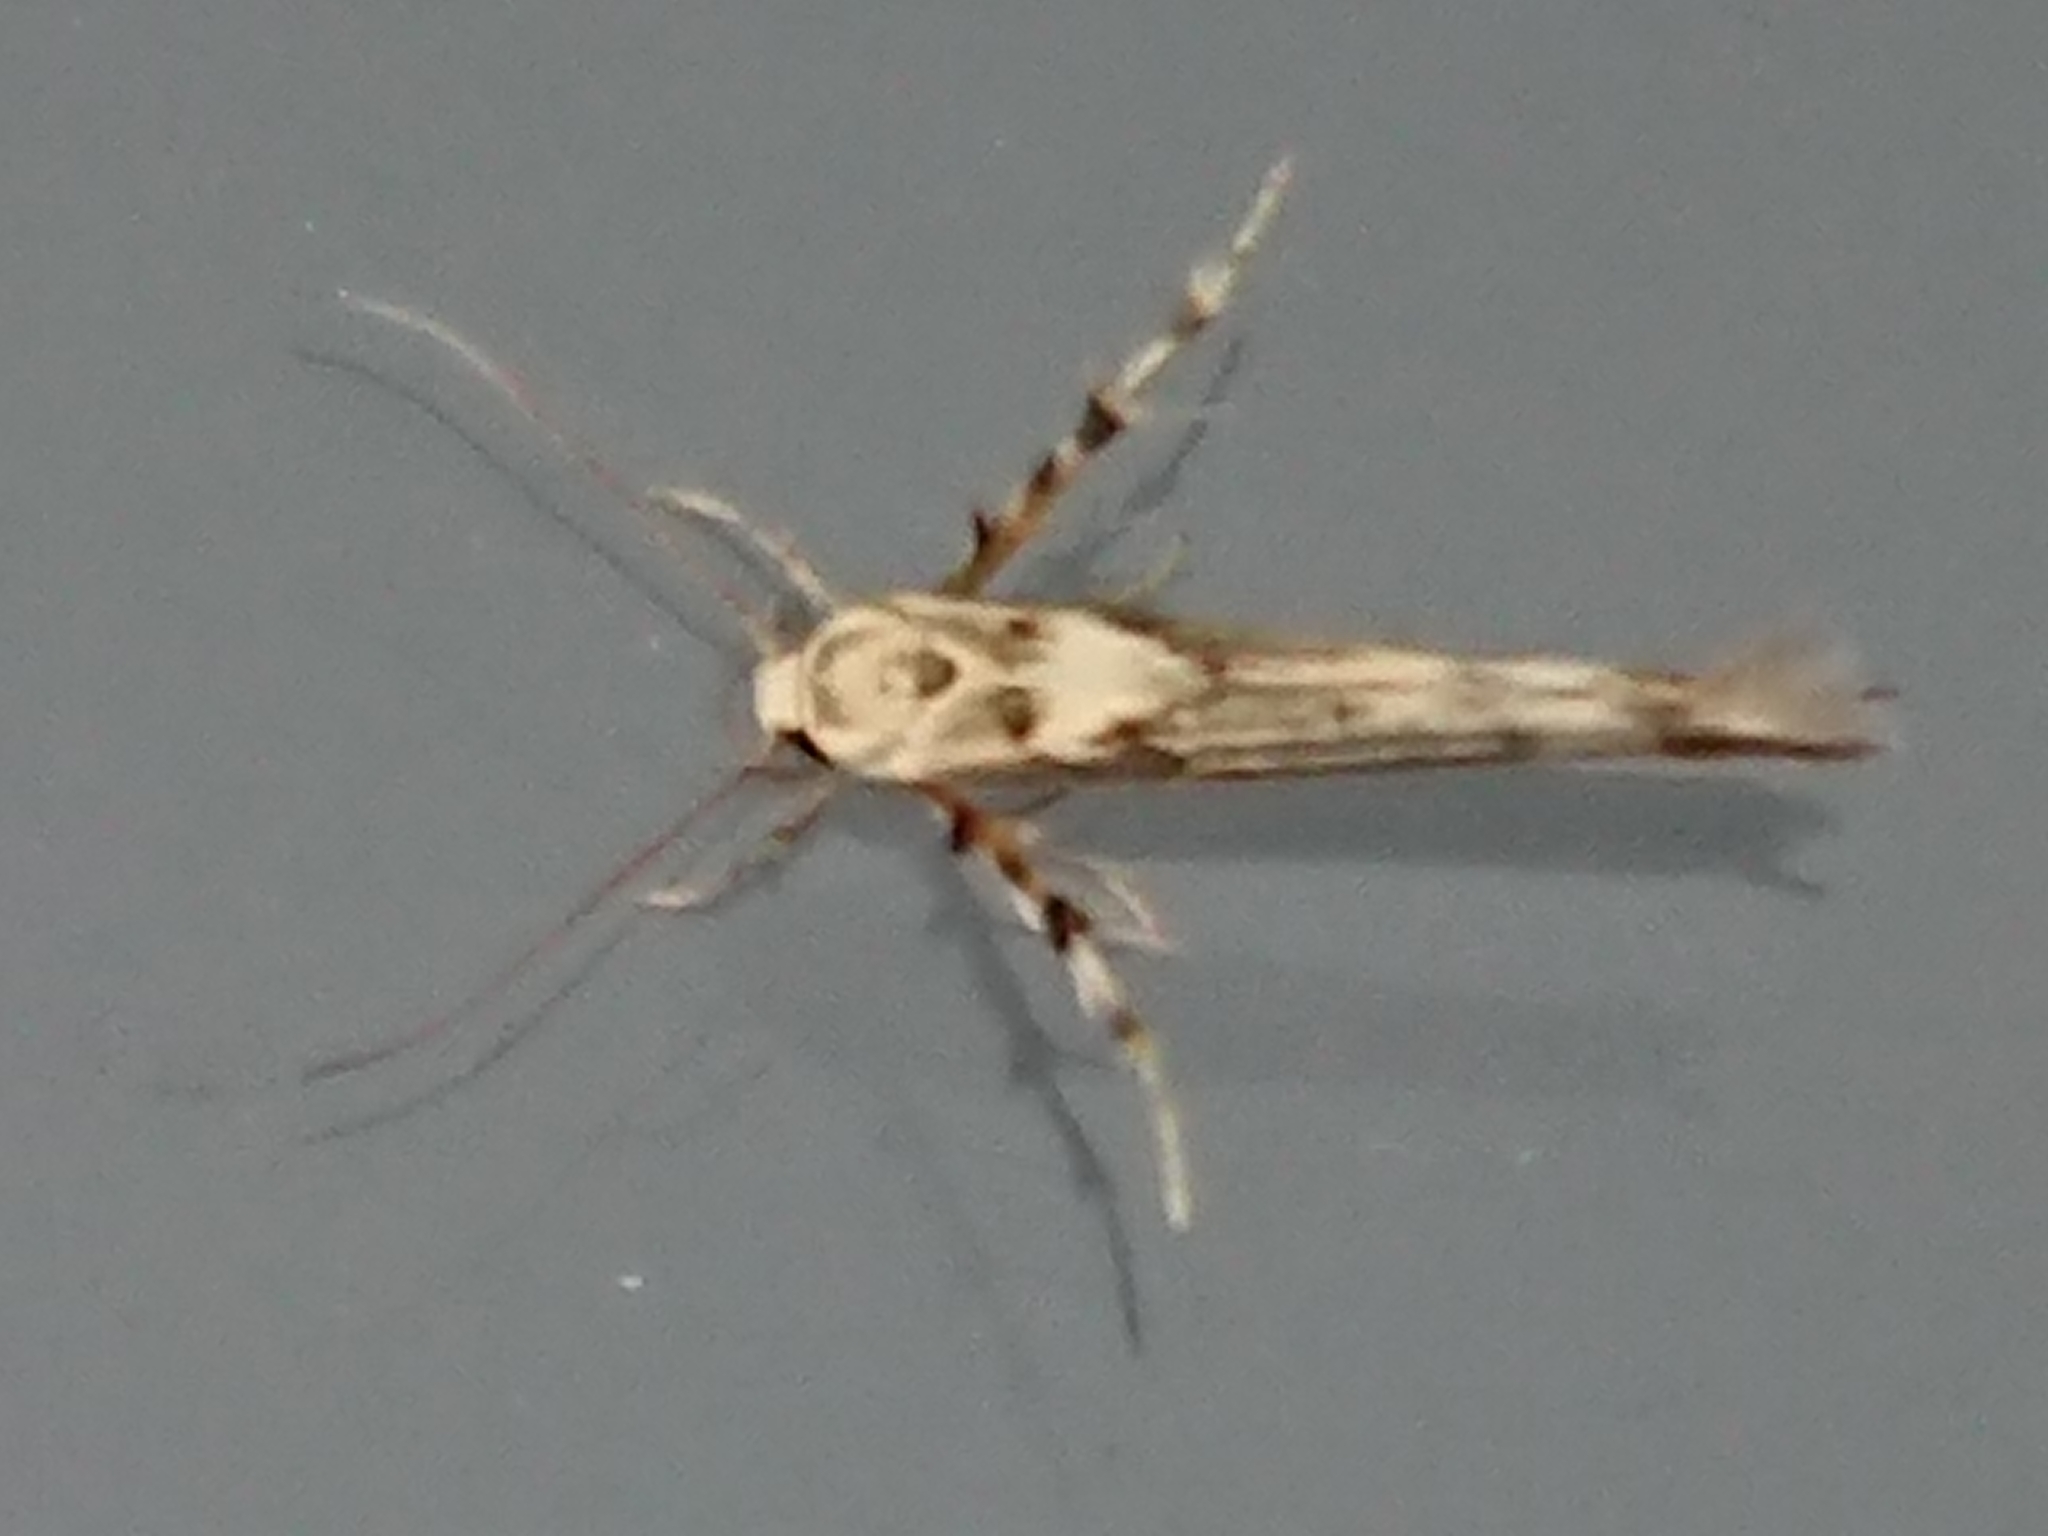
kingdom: Animalia
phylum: Arthropoda
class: Insecta
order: Lepidoptera
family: Stathmopodidae
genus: Stathmopoda
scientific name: Stathmopoda plumbiflua
